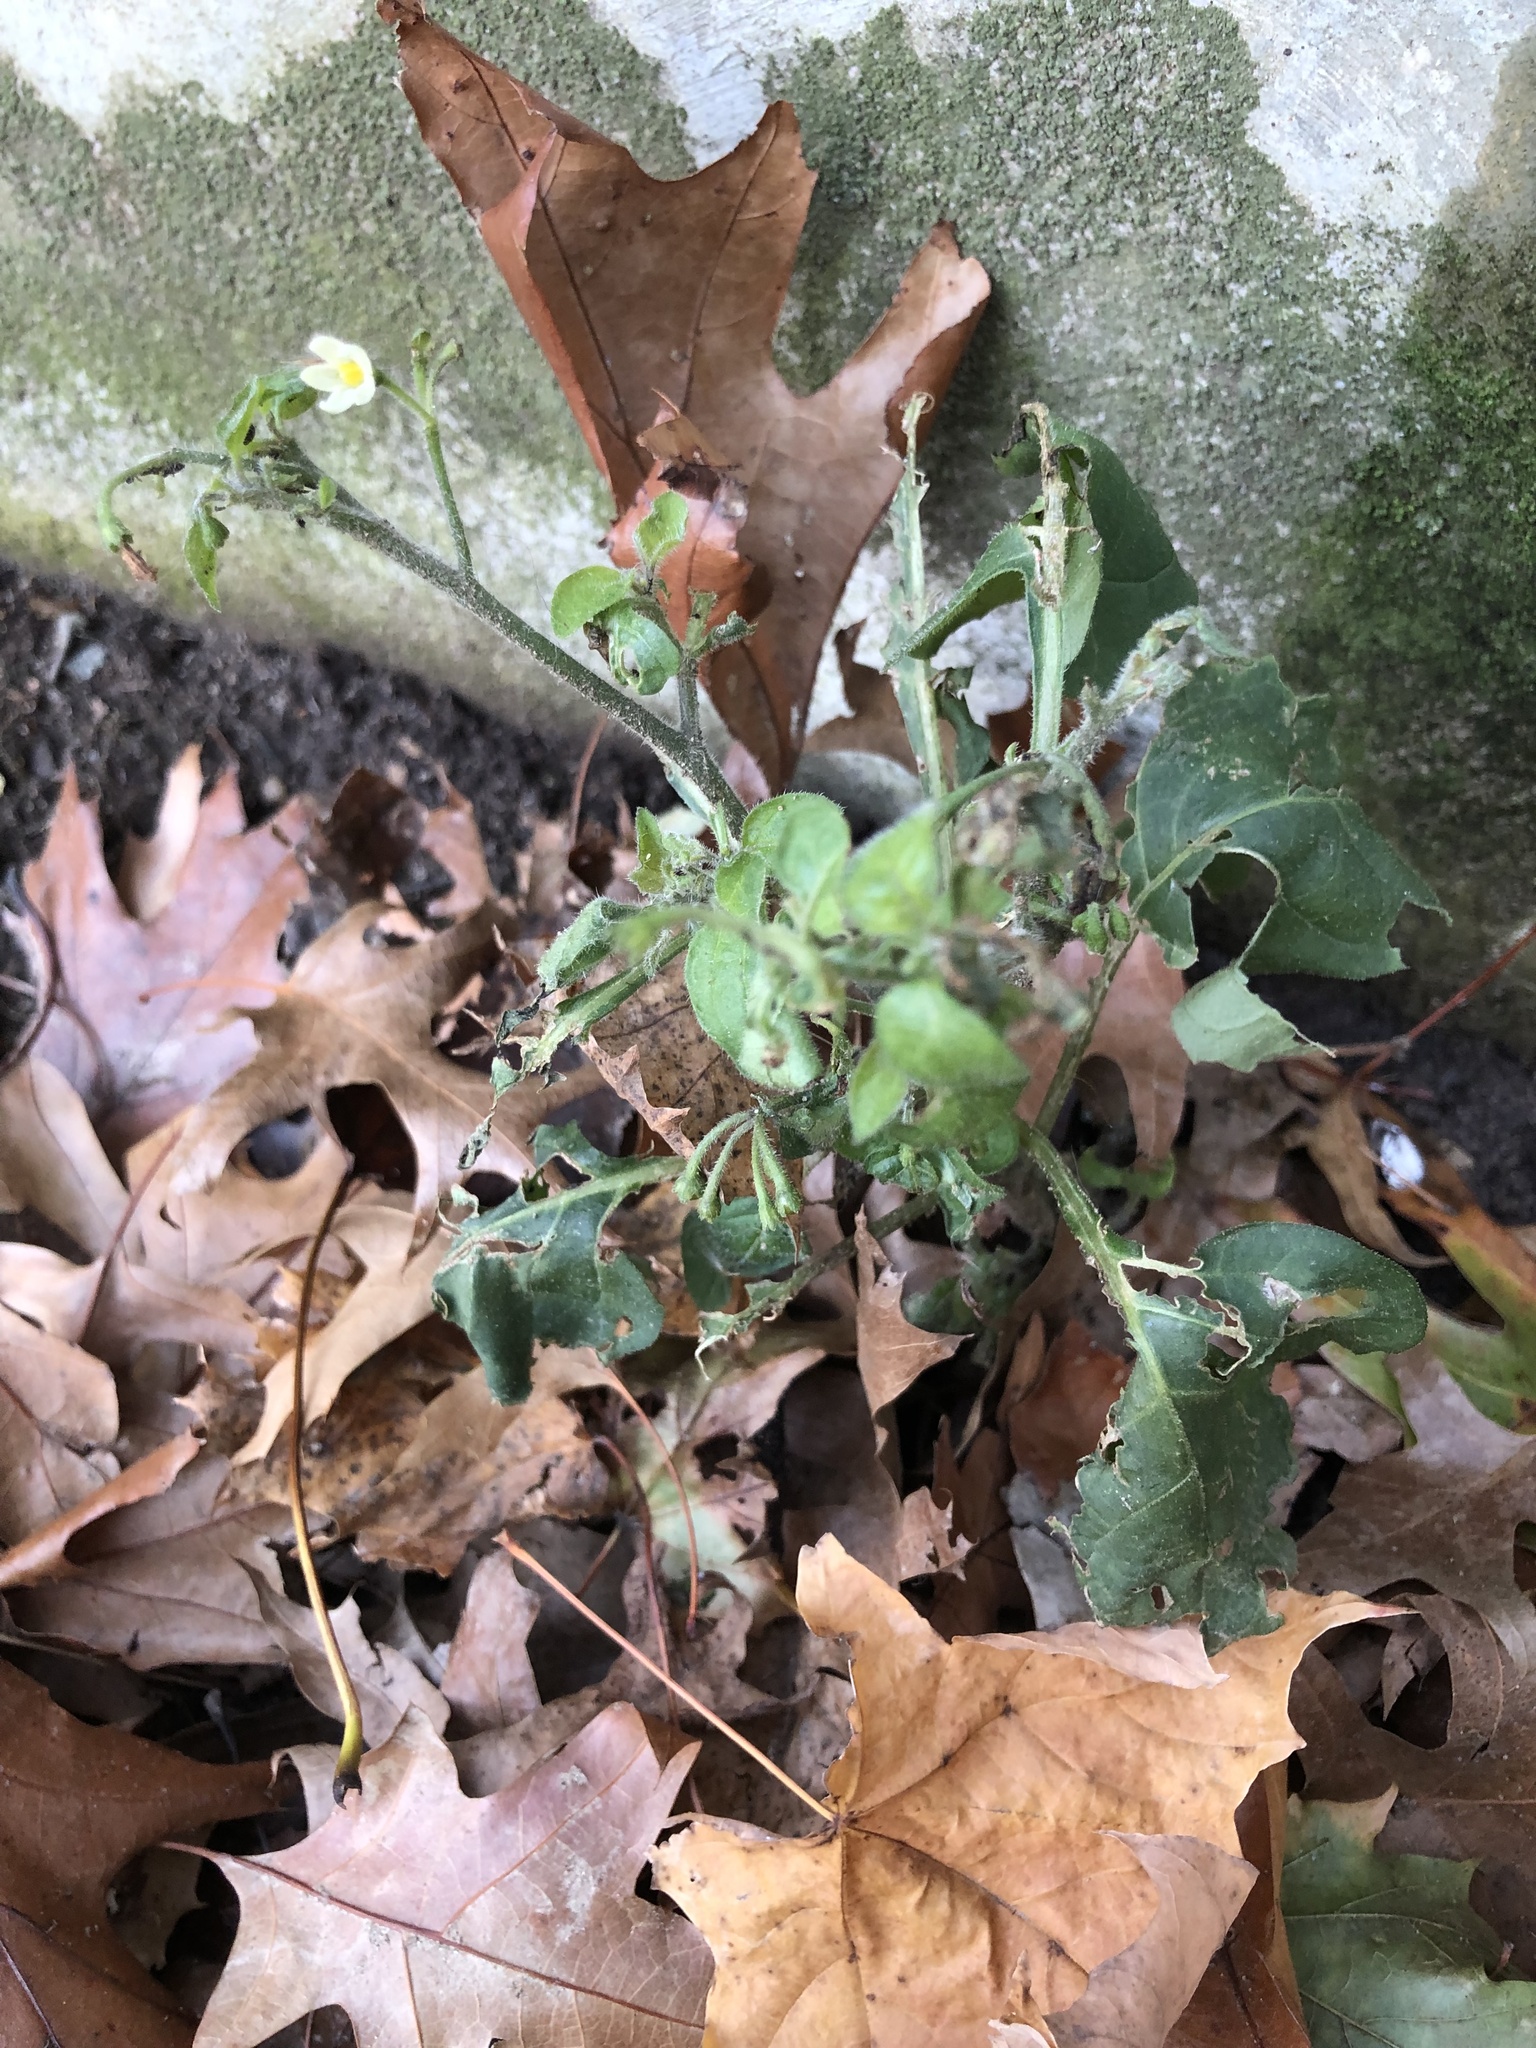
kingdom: Plantae
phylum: Tracheophyta
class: Magnoliopsida
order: Solanales
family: Solanaceae
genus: Solanum
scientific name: Solanum nigrum
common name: Black nightshade
